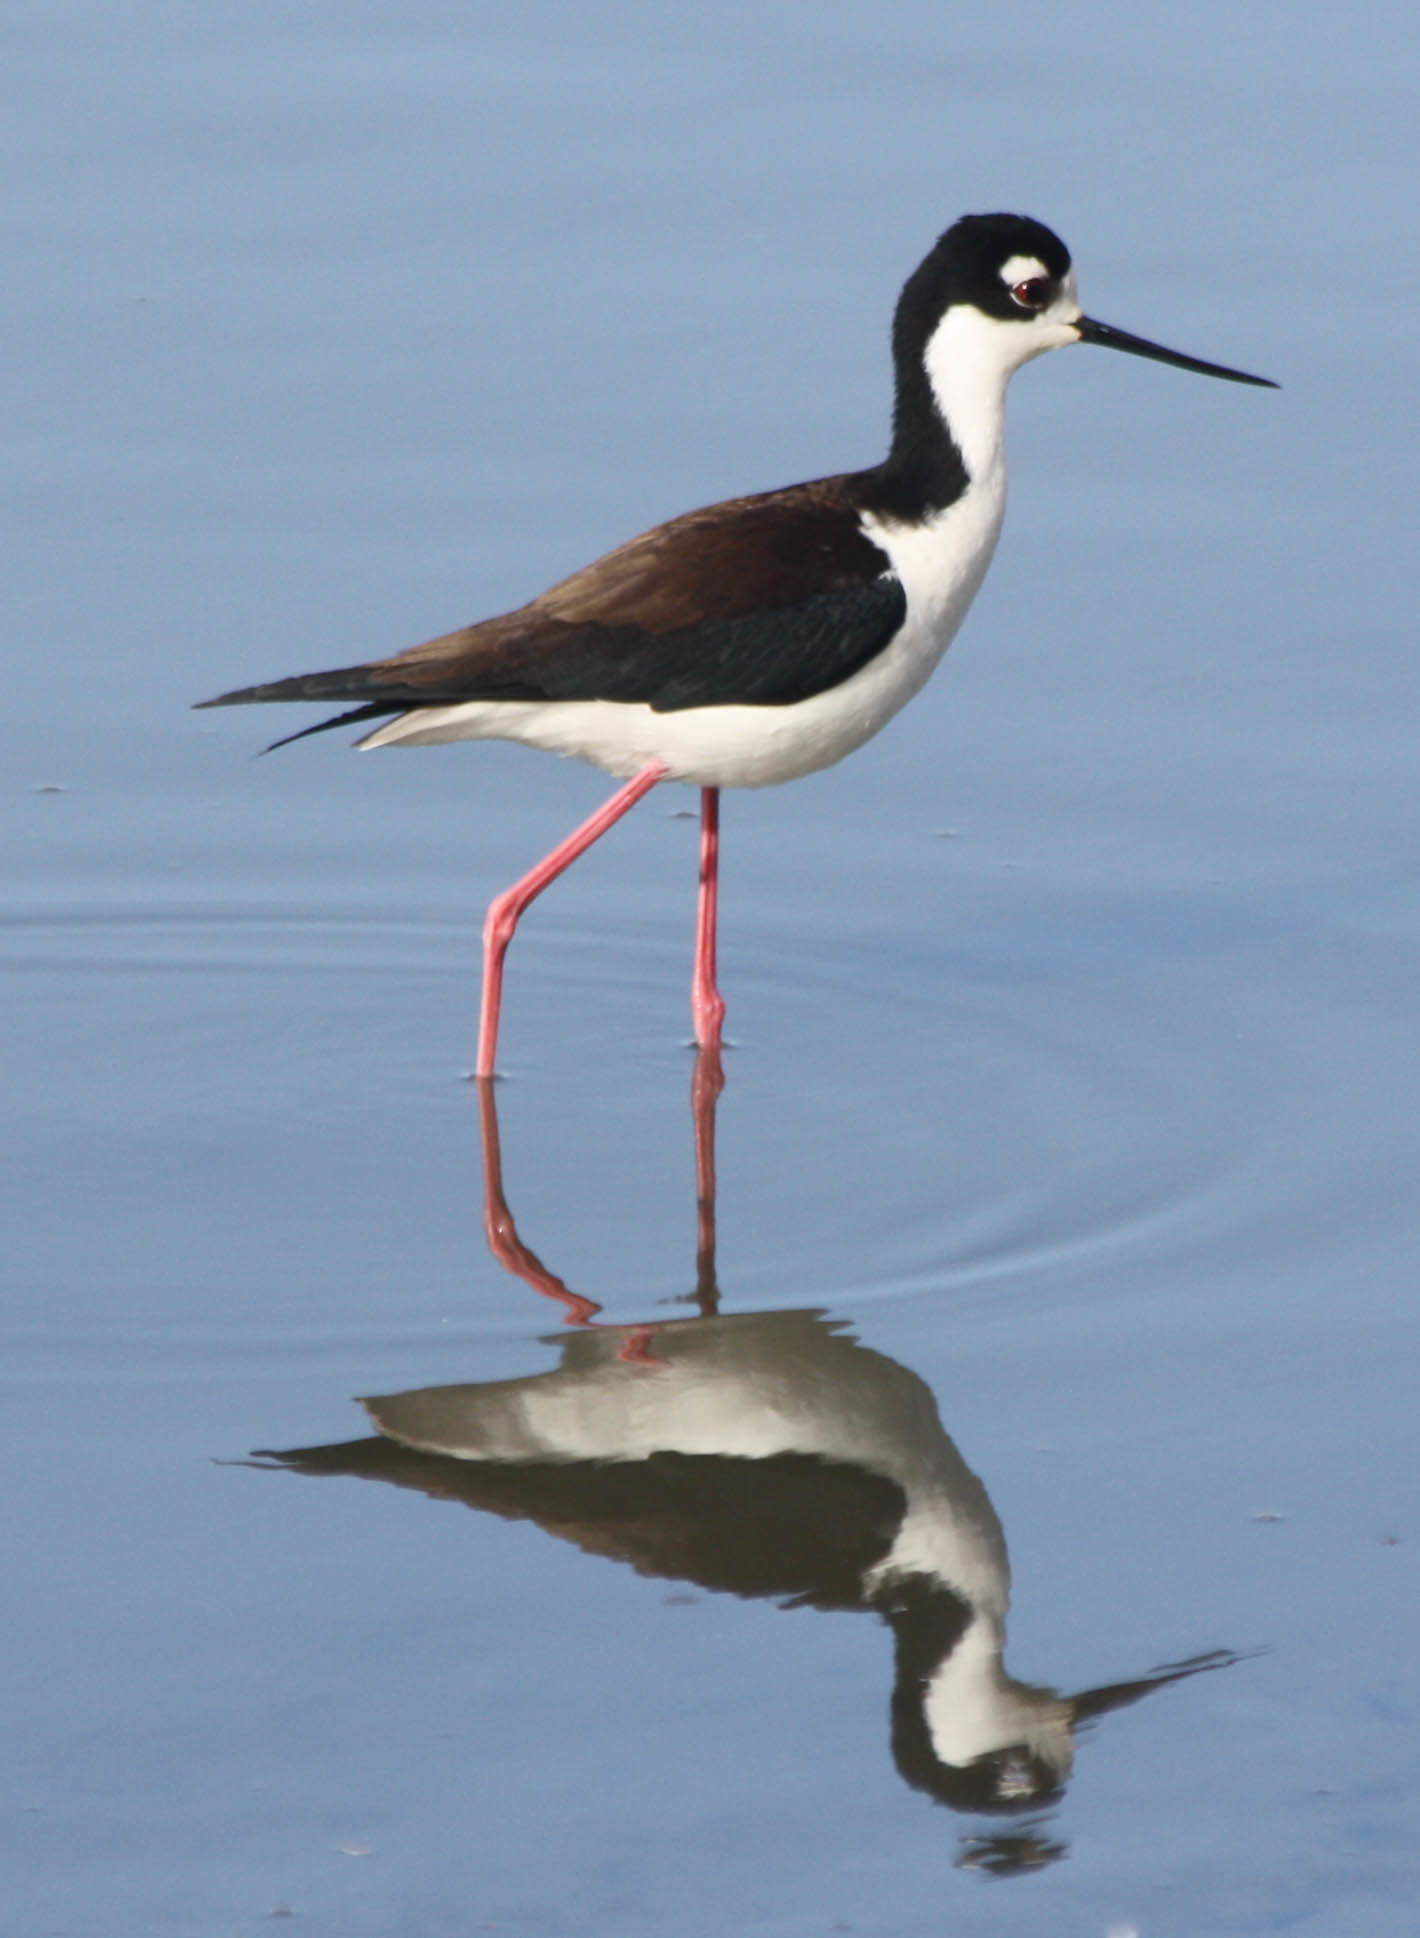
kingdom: Animalia
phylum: Chordata
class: Aves
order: Charadriiformes
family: Recurvirostridae
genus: Himantopus
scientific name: Himantopus mexicanus
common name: Black-necked stilt
